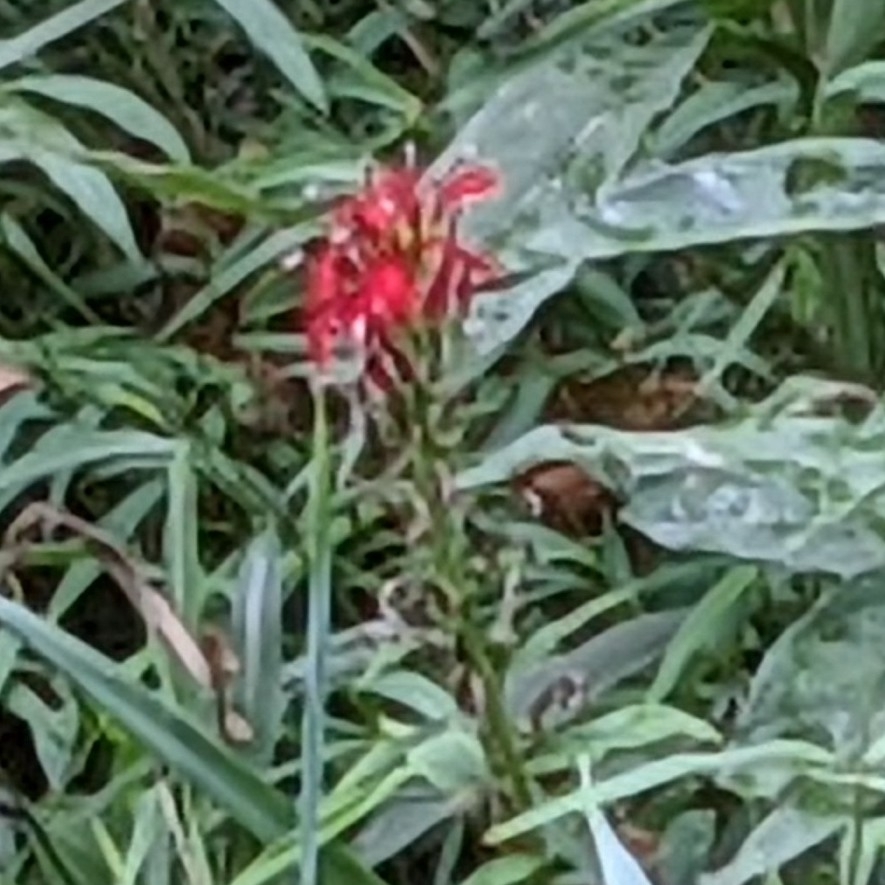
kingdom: Plantae
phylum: Tracheophyta
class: Magnoliopsida
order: Asterales
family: Campanulaceae
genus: Lobelia
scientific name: Lobelia cardinalis
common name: Cardinal flower
